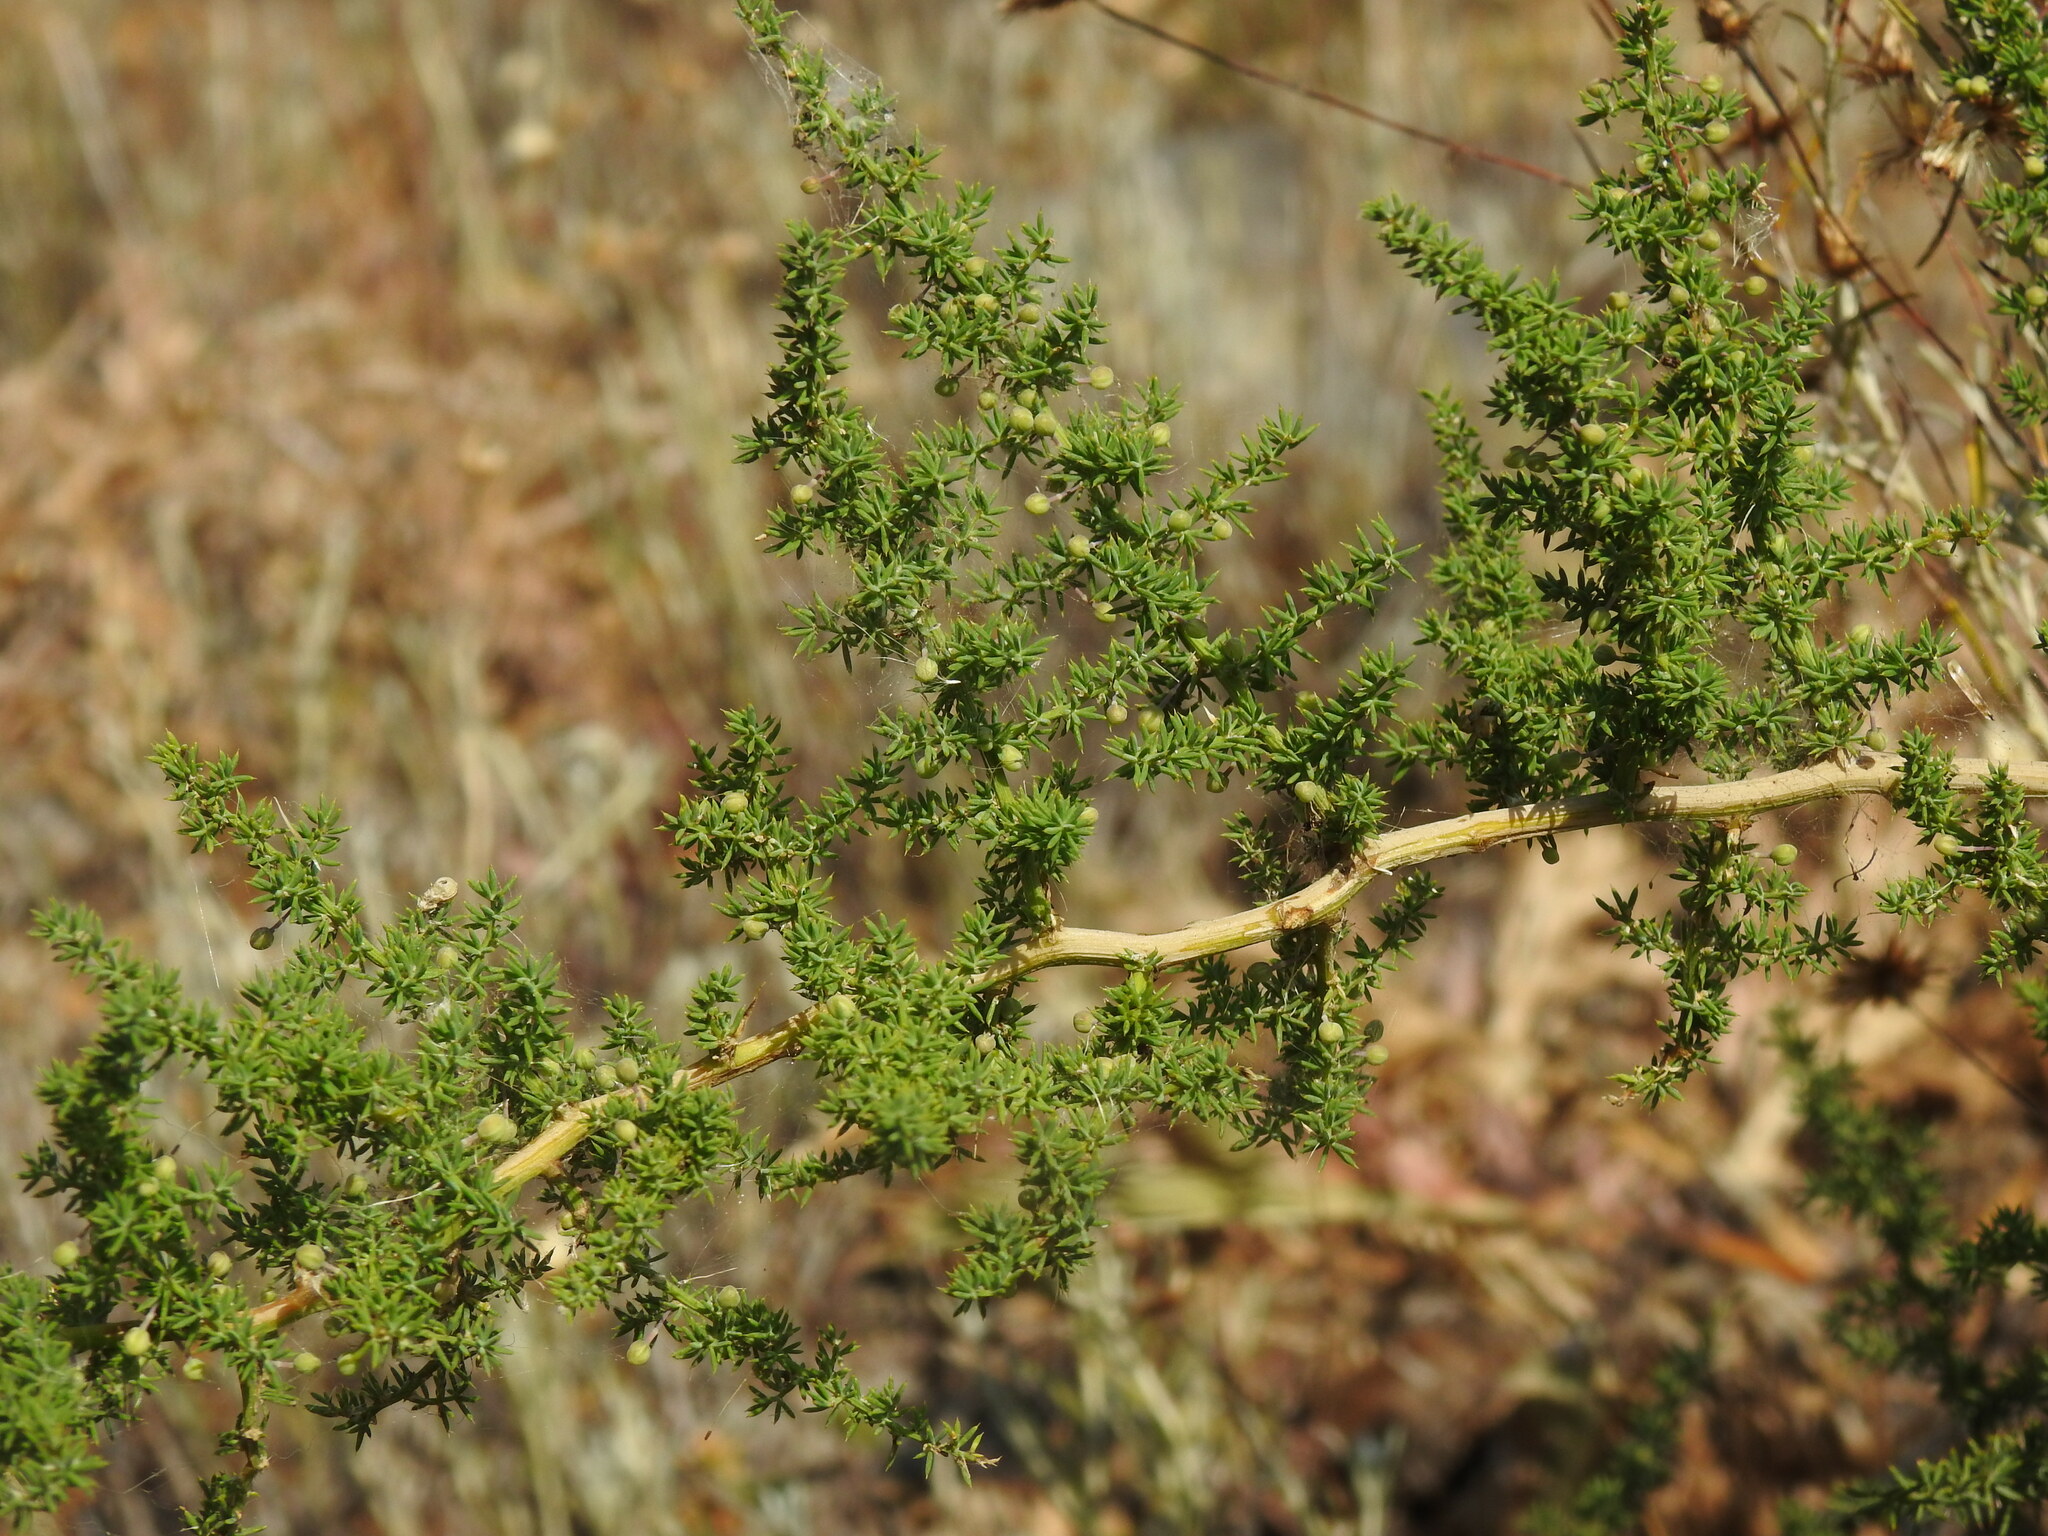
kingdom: Plantae
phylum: Tracheophyta
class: Liliopsida
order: Asparagales
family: Asparagaceae
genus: Asparagus
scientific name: Asparagus acutifolius
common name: Wild asparagus
